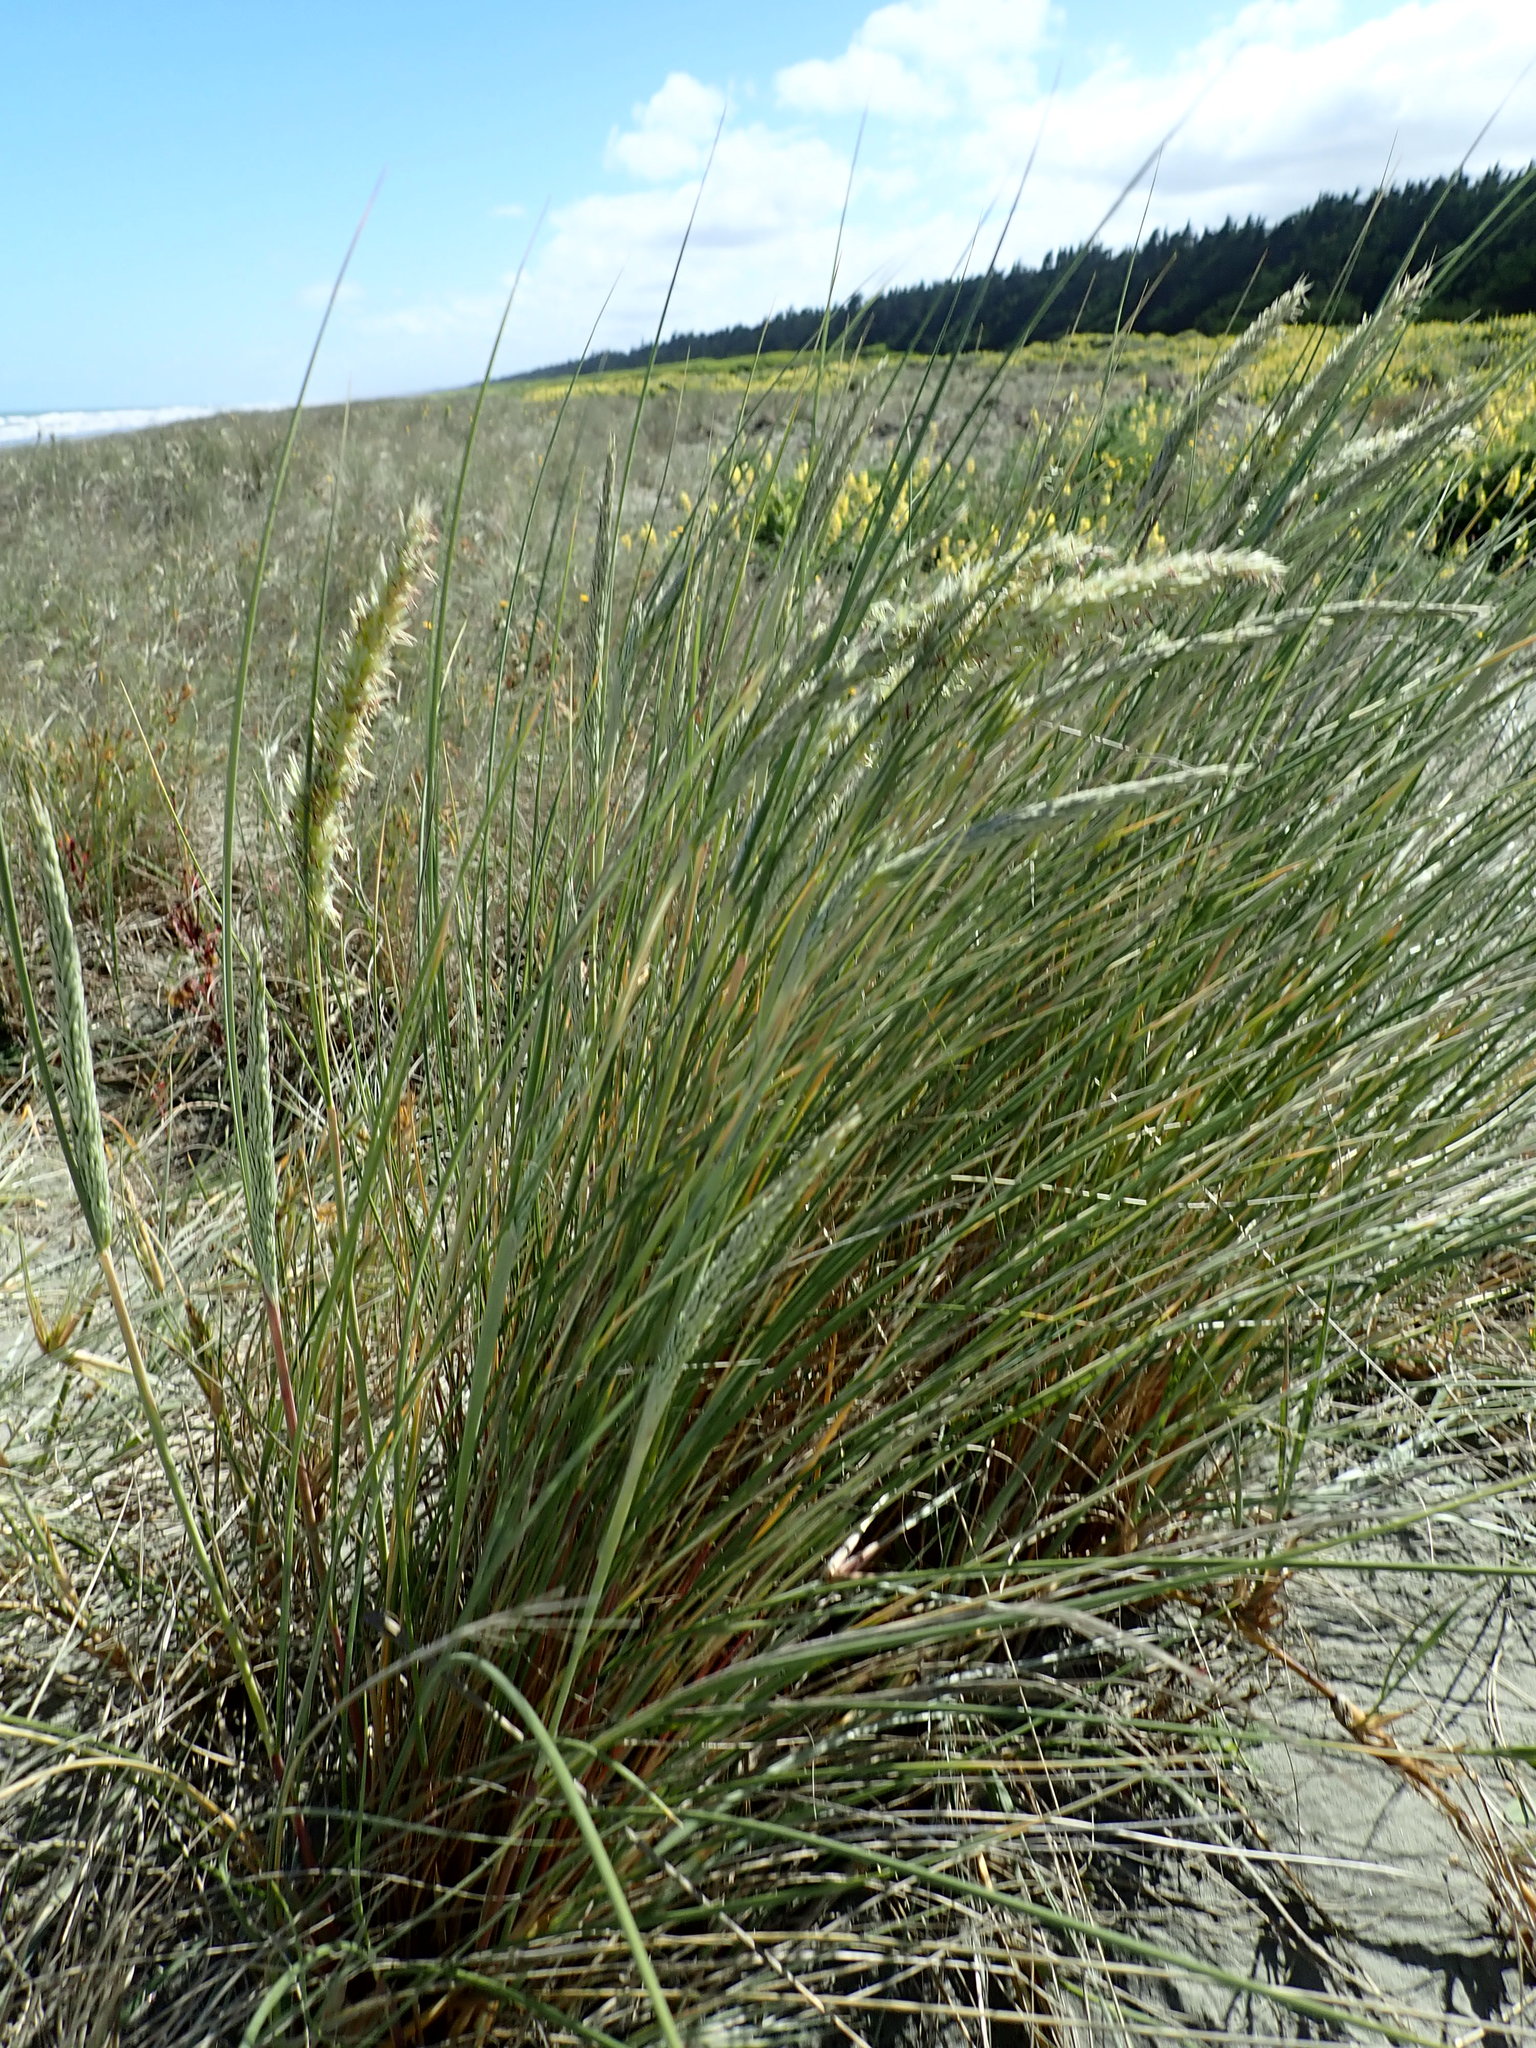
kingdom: Plantae
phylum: Tracheophyta
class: Liliopsida
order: Poales
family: Poaceae
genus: Calamagrostis
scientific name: Calamagrostis arenaria
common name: European beachgrass
